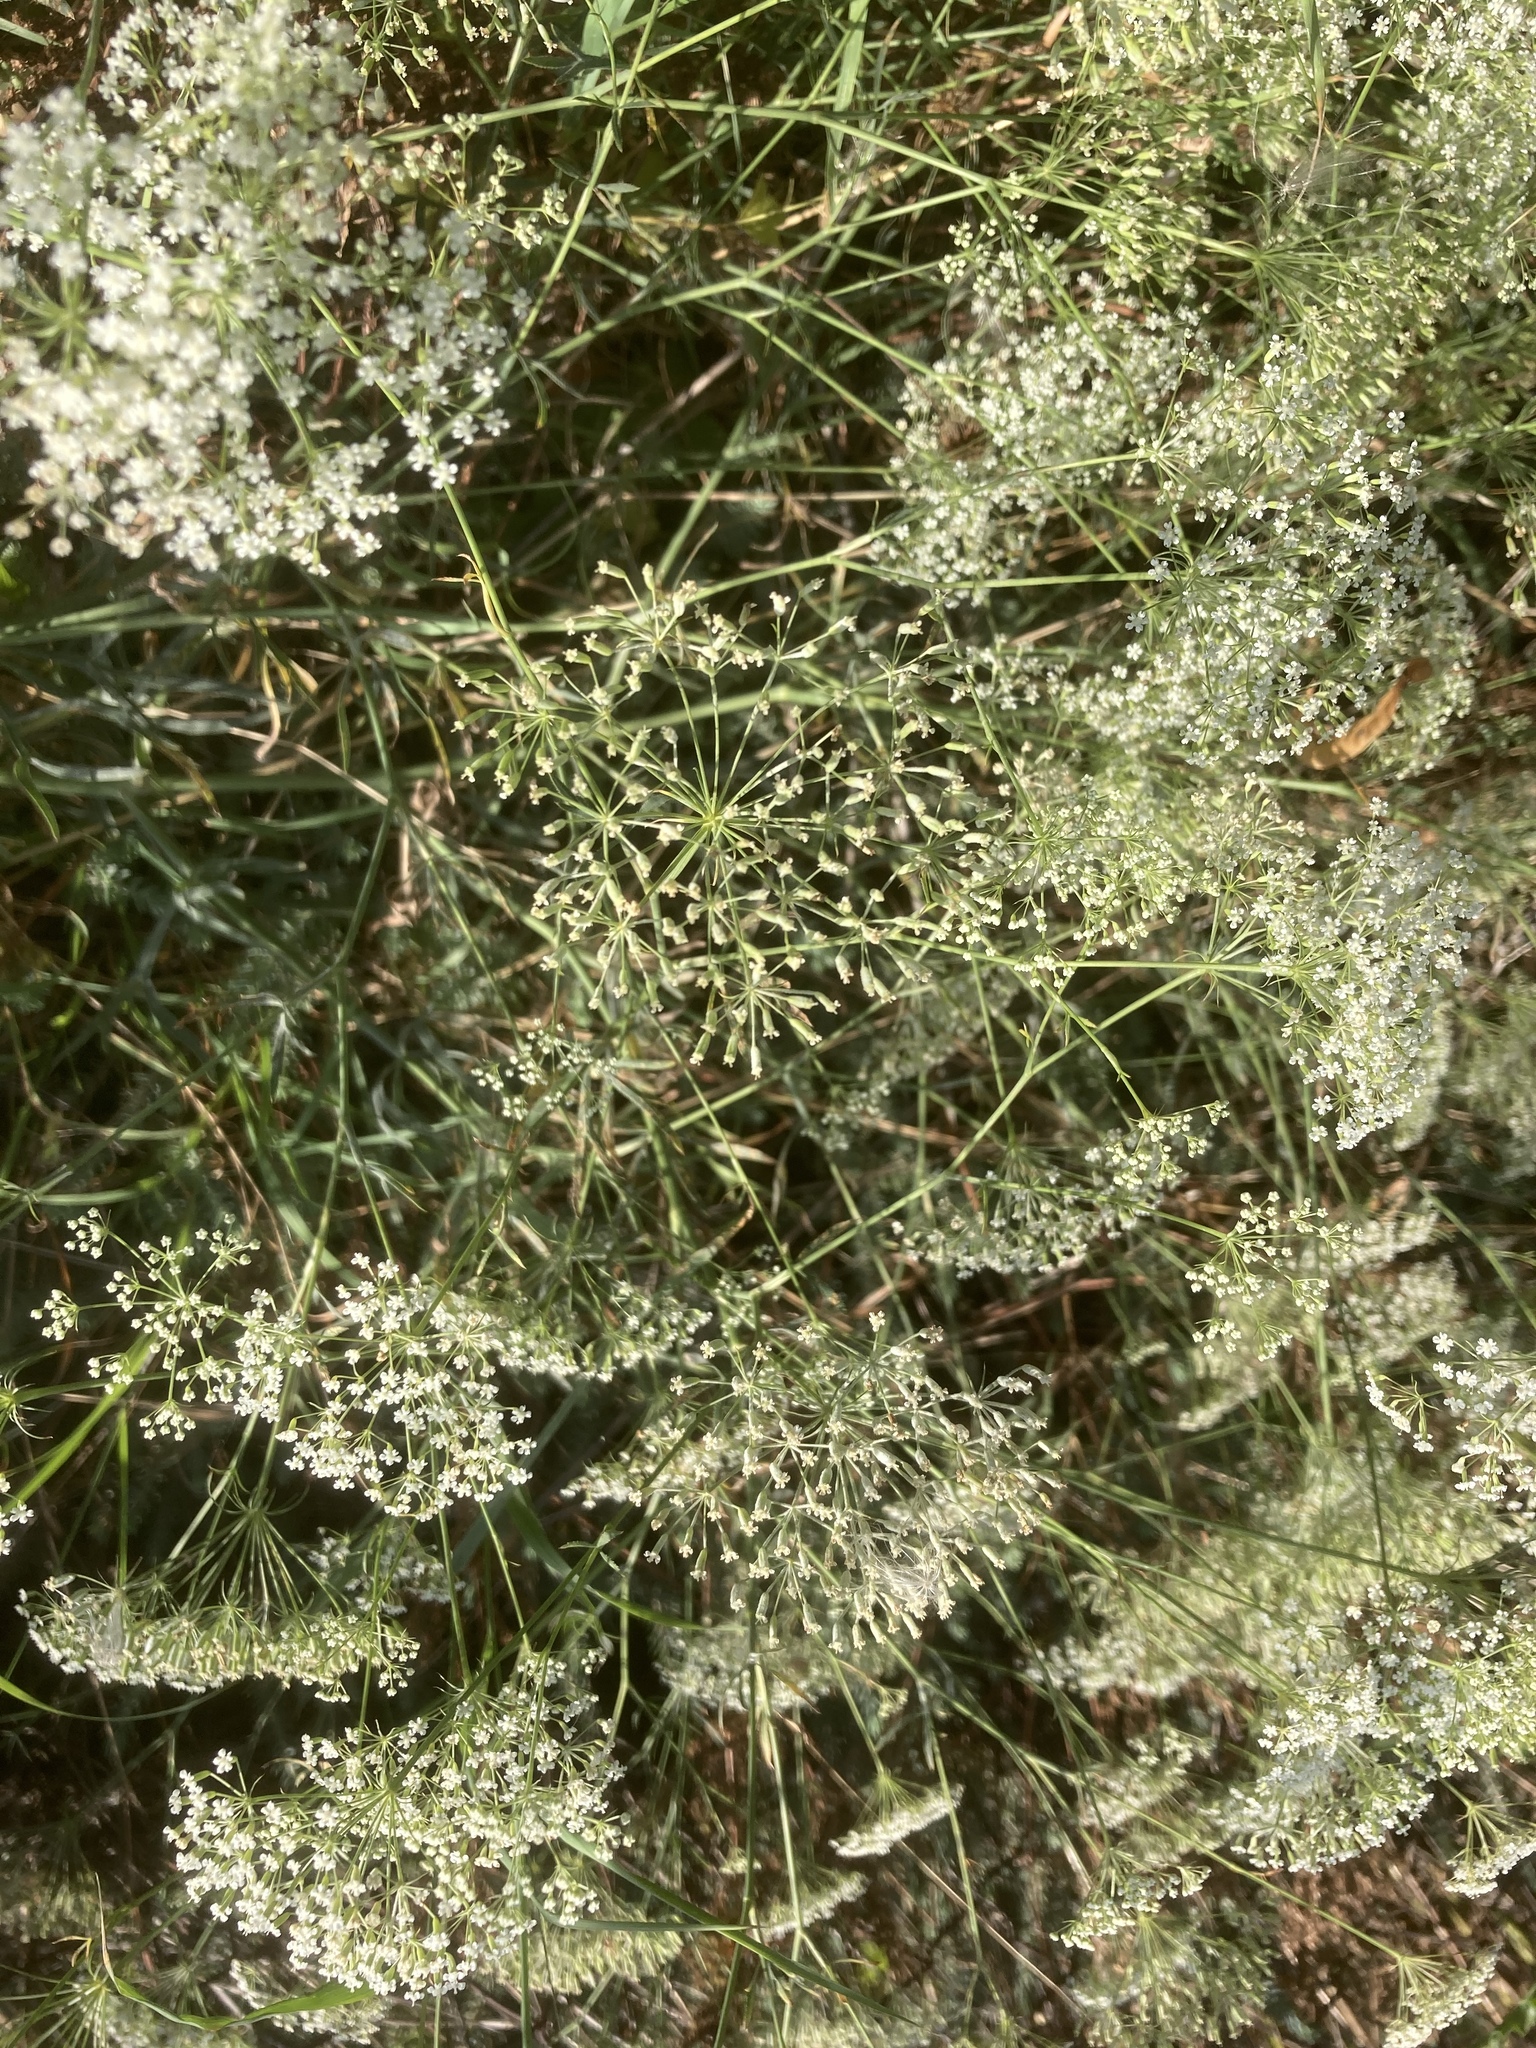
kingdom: Plantae
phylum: Tracheophyta
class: Magnoliopsida
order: Apiales
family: Apiaceae
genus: Falcaria
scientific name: Falcaria vulgaris
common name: Longleaf
